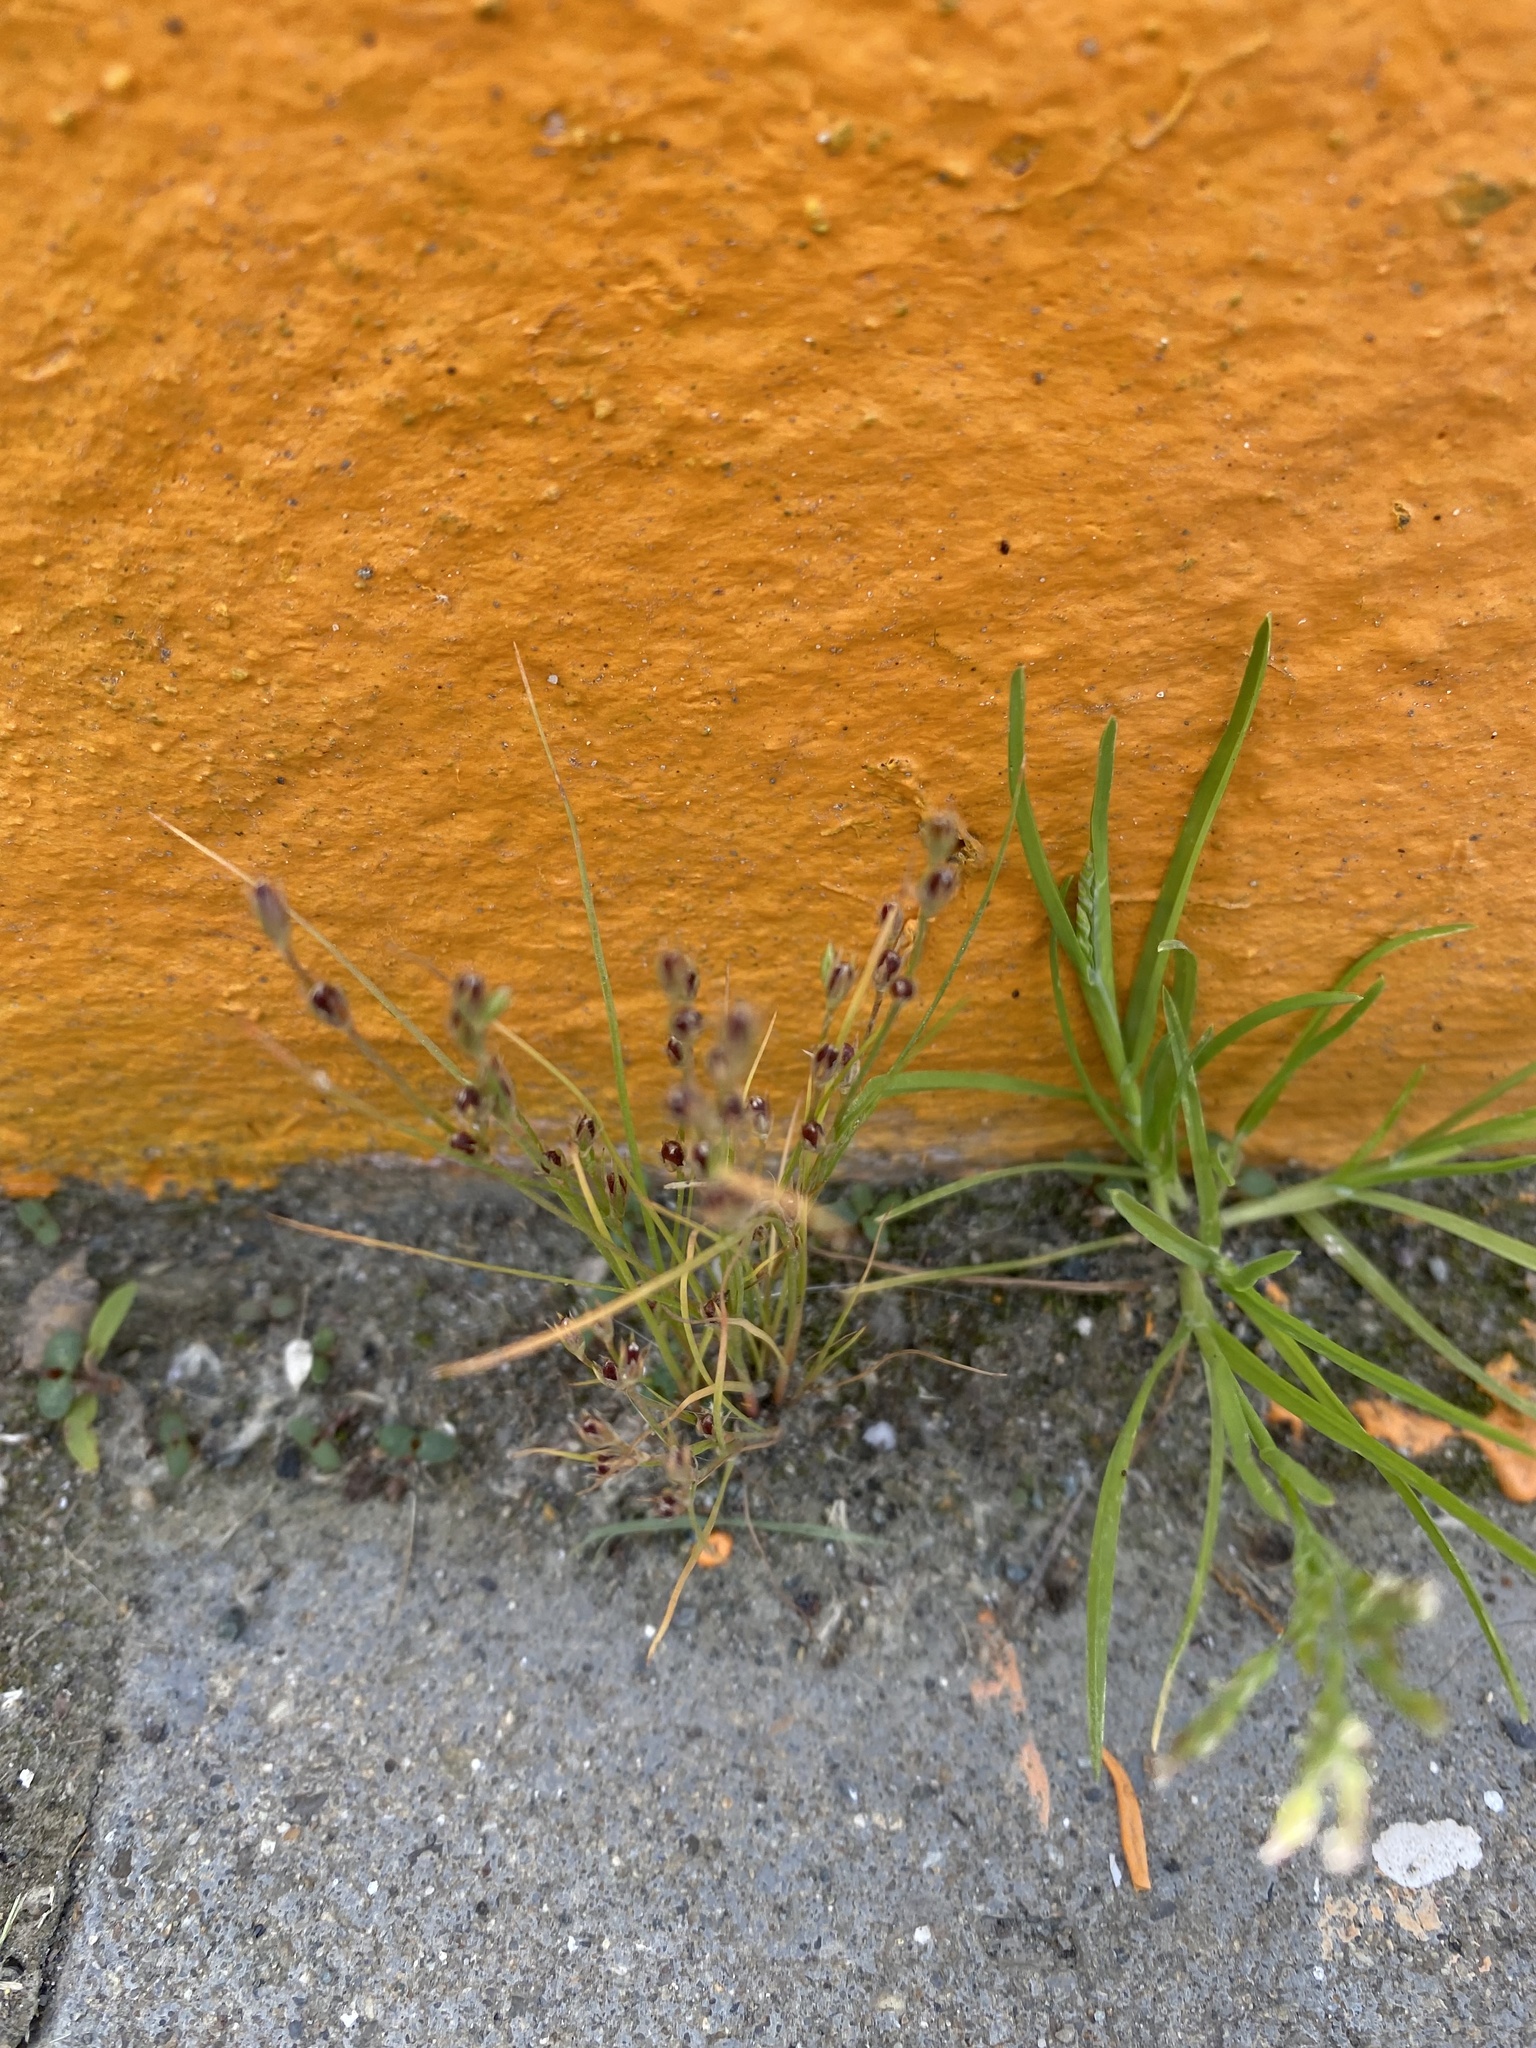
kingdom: Plantae
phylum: Tracheophyta
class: Liliopsida
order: Poales
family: Juncaceae
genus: Juncus
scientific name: Juncus bufonius
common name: Toad rush
